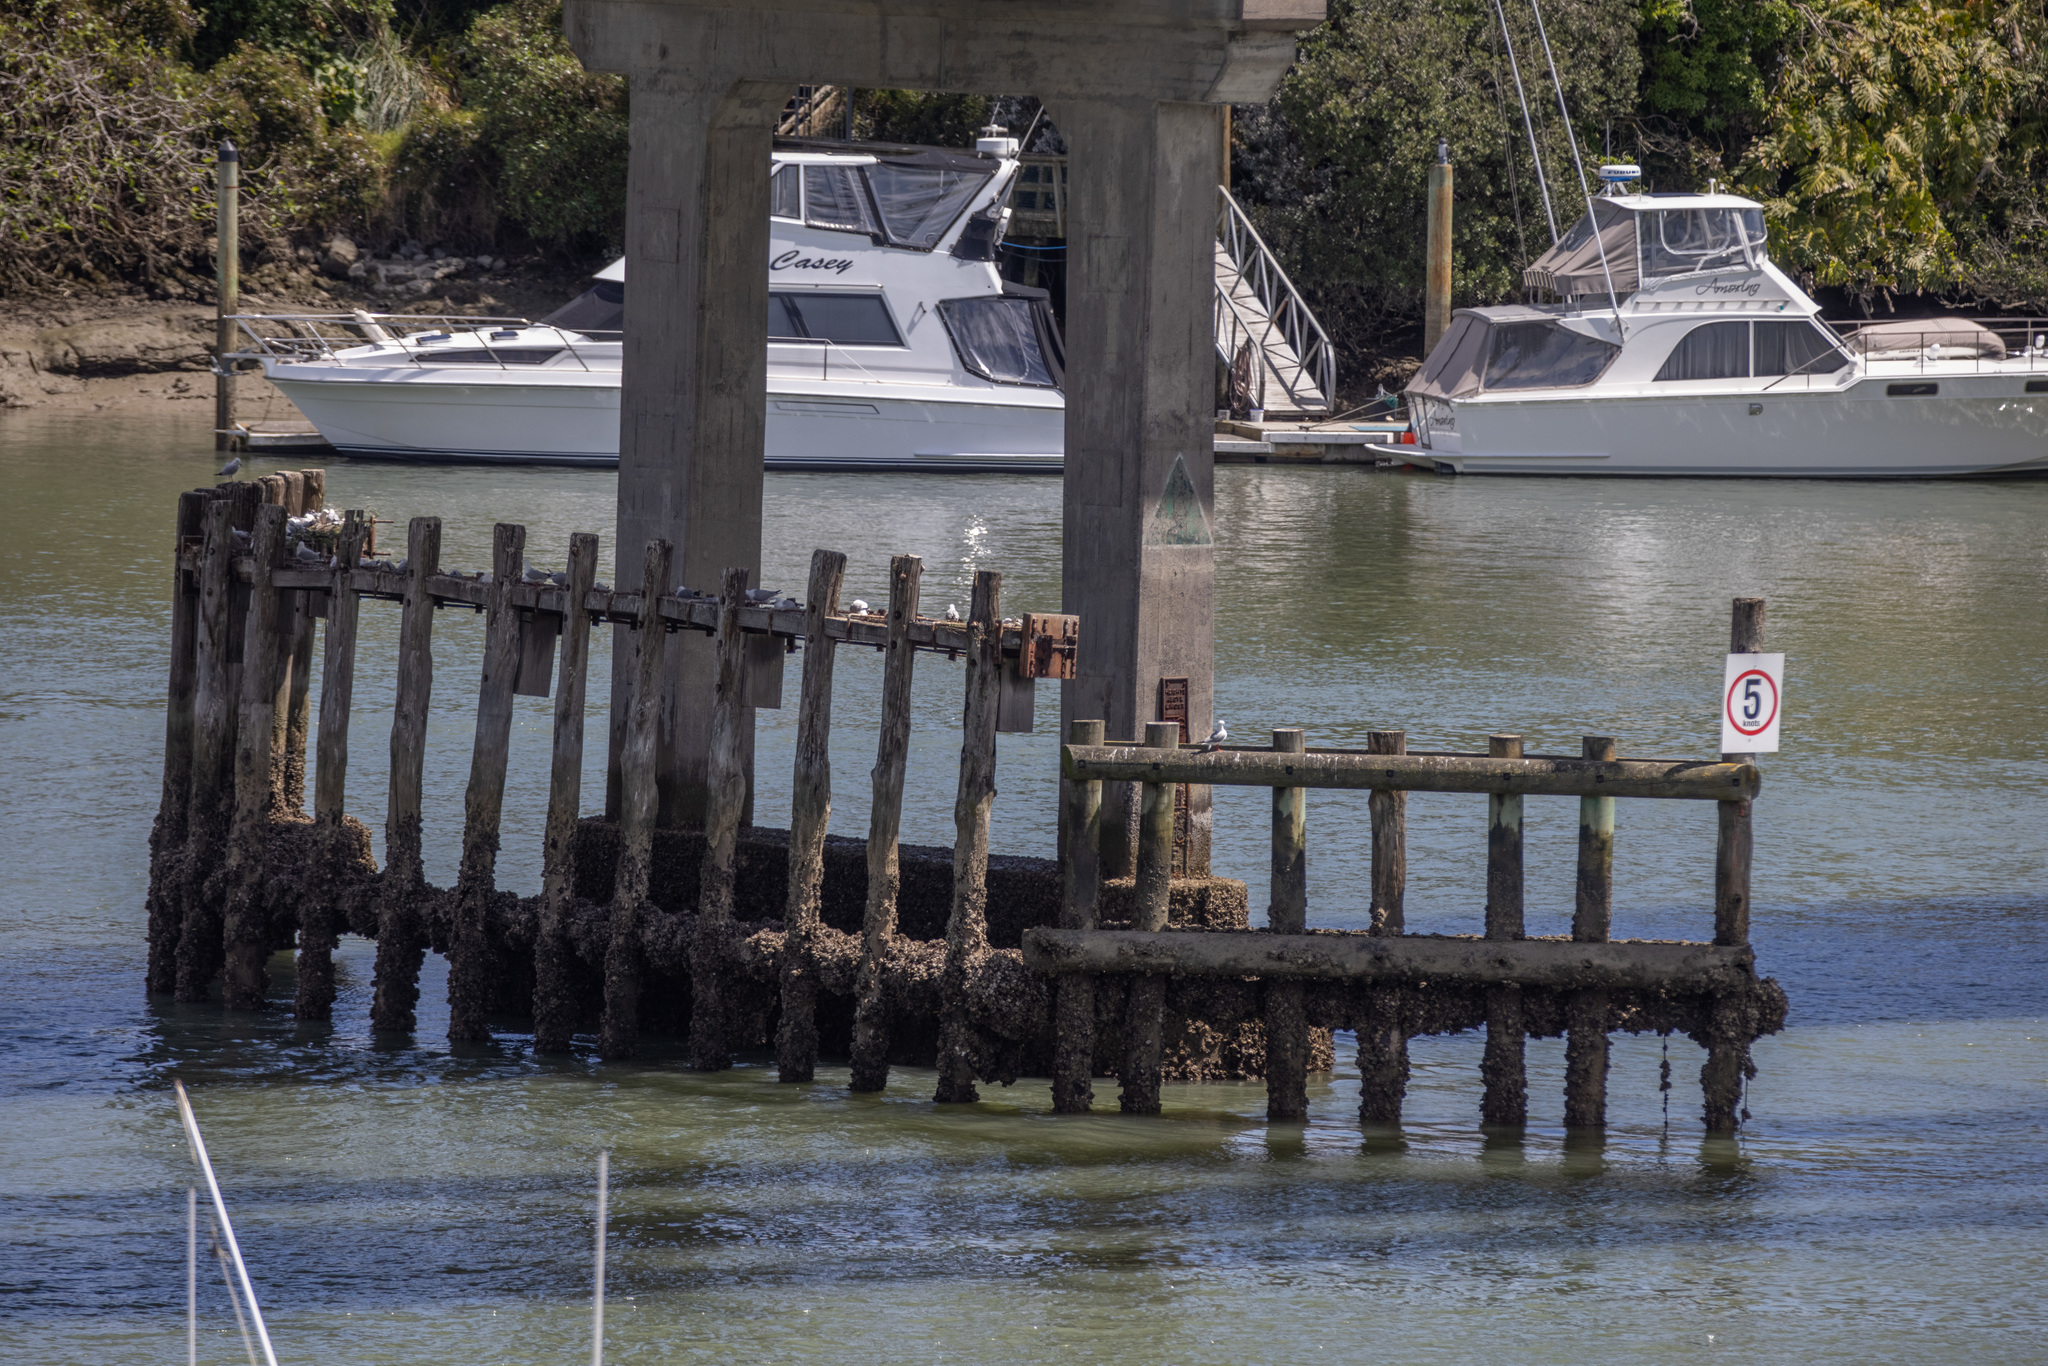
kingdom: Animalia
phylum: Chordata
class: Aves
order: Charadriiformes
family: Laridae
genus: Chroicocephalus
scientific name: Chroicocephalus novaehollandiae
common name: Silver gull
